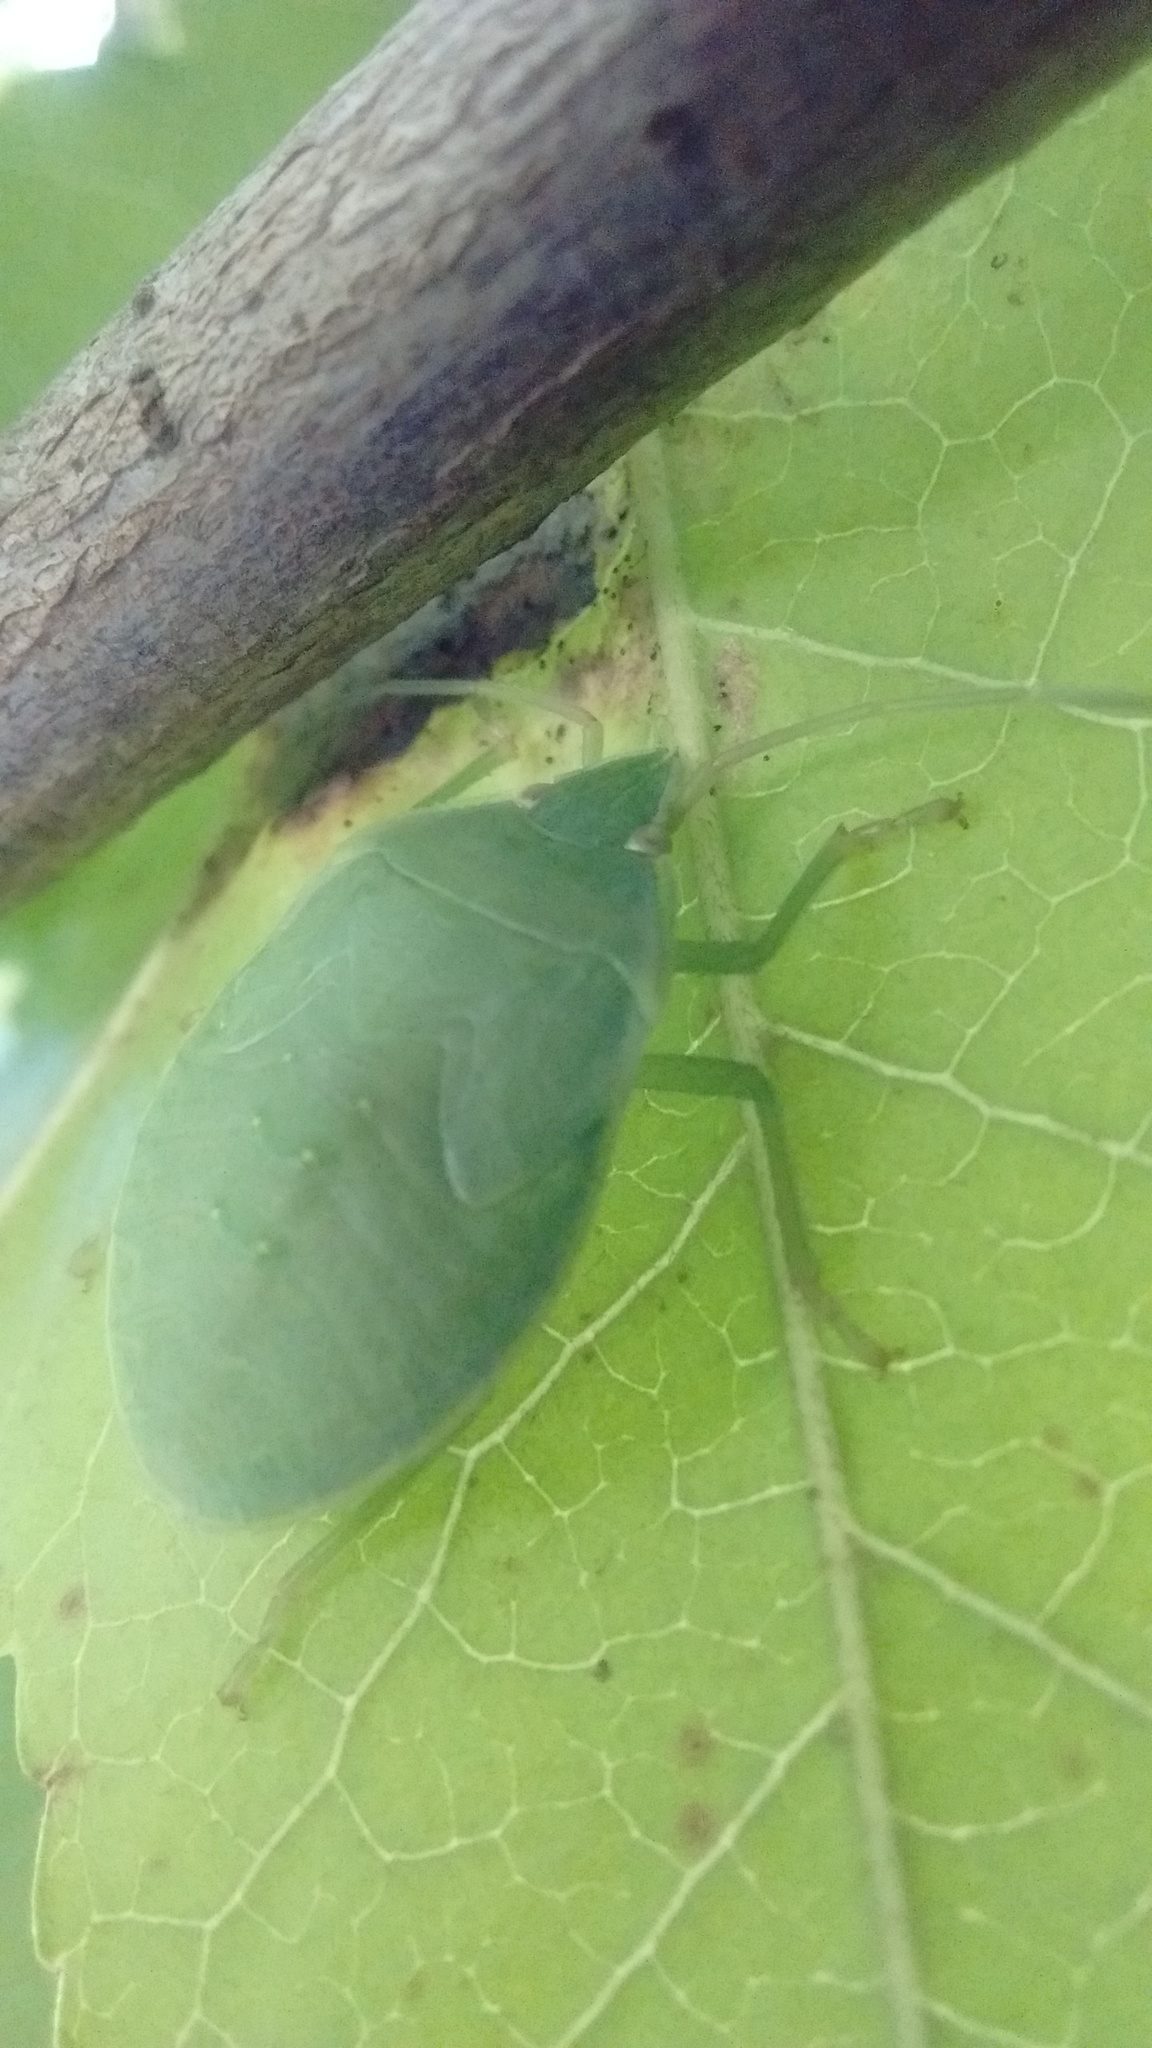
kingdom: Animalia
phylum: Arthropoda
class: Insecta
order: Hemiptera
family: Pentatomidae
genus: Loxa
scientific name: Loxa deducta
